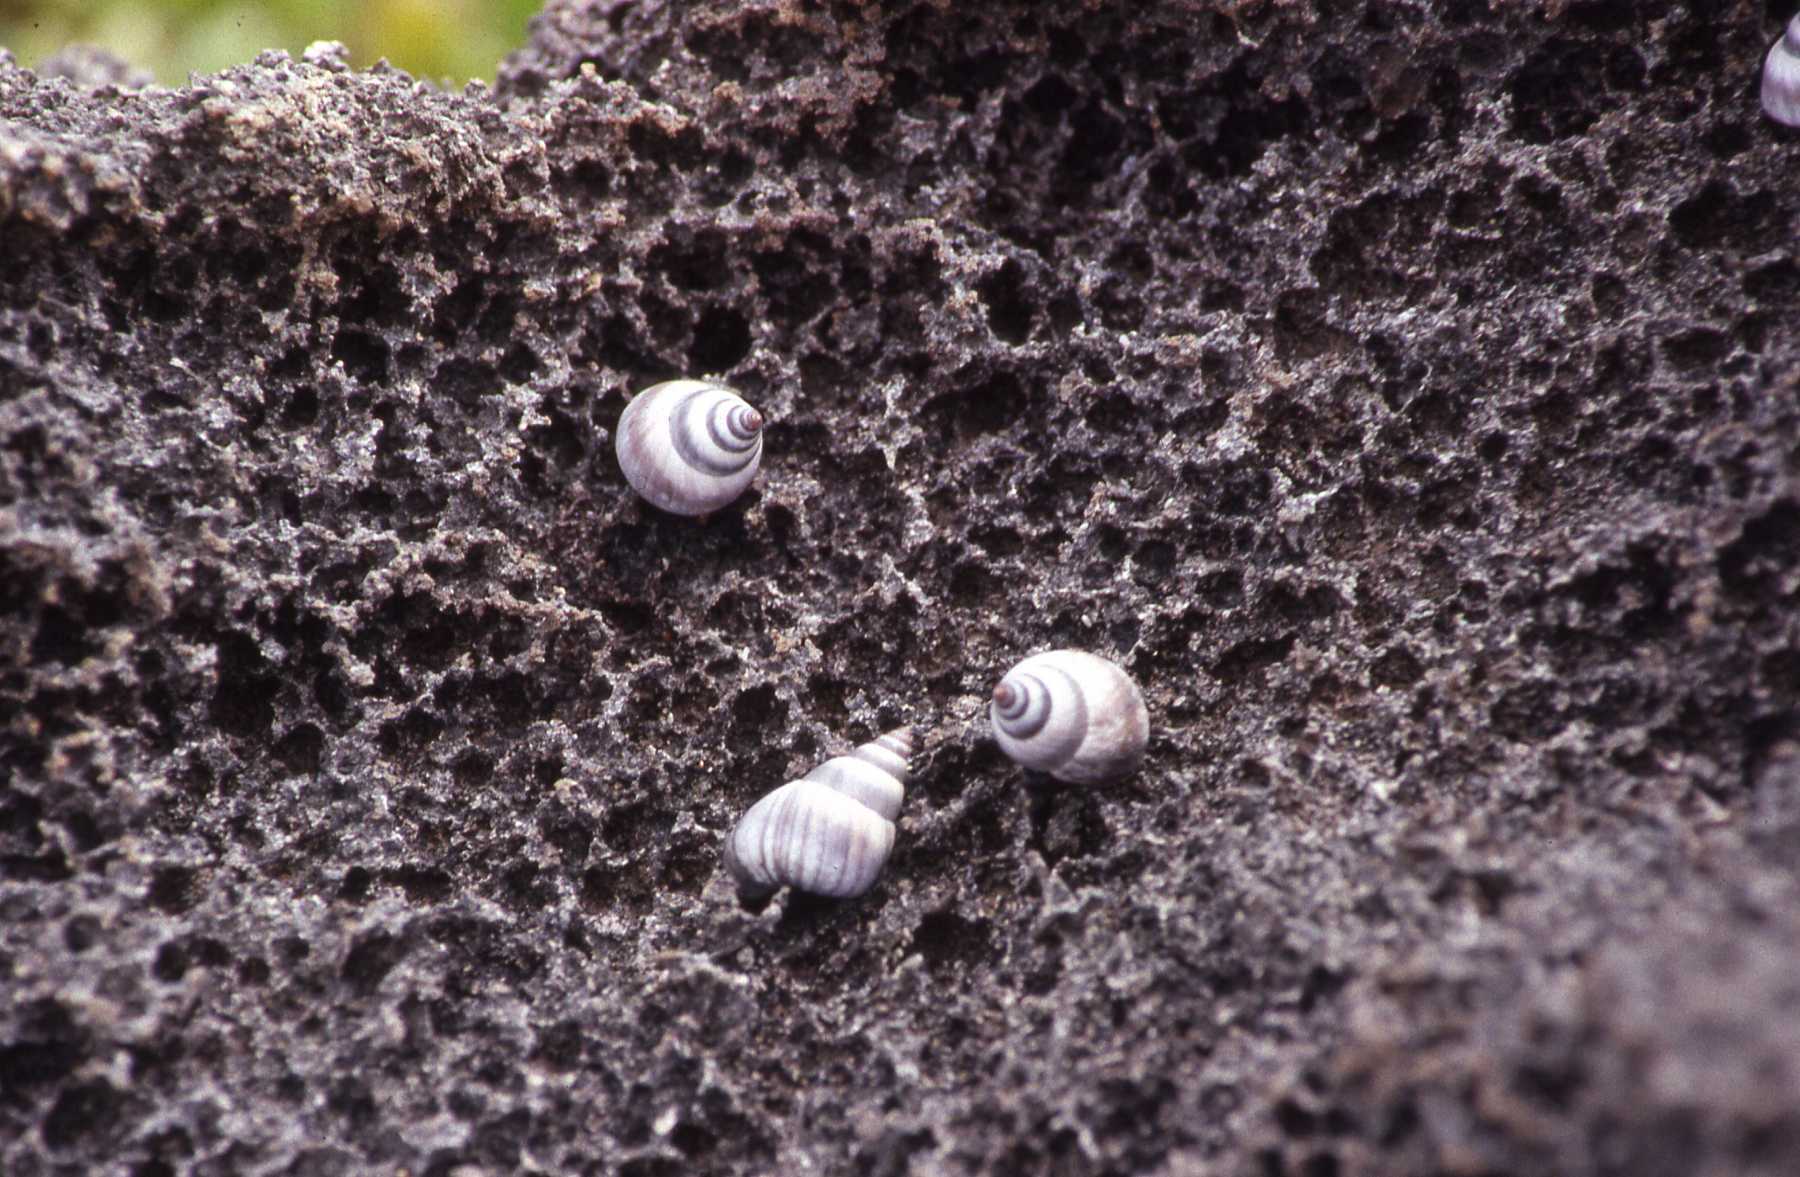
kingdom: Animalia
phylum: Mollusca
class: Gastropoda
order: Littorinimorpha
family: Littorinidae
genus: Littoraria
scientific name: Littoraria mauritiana
